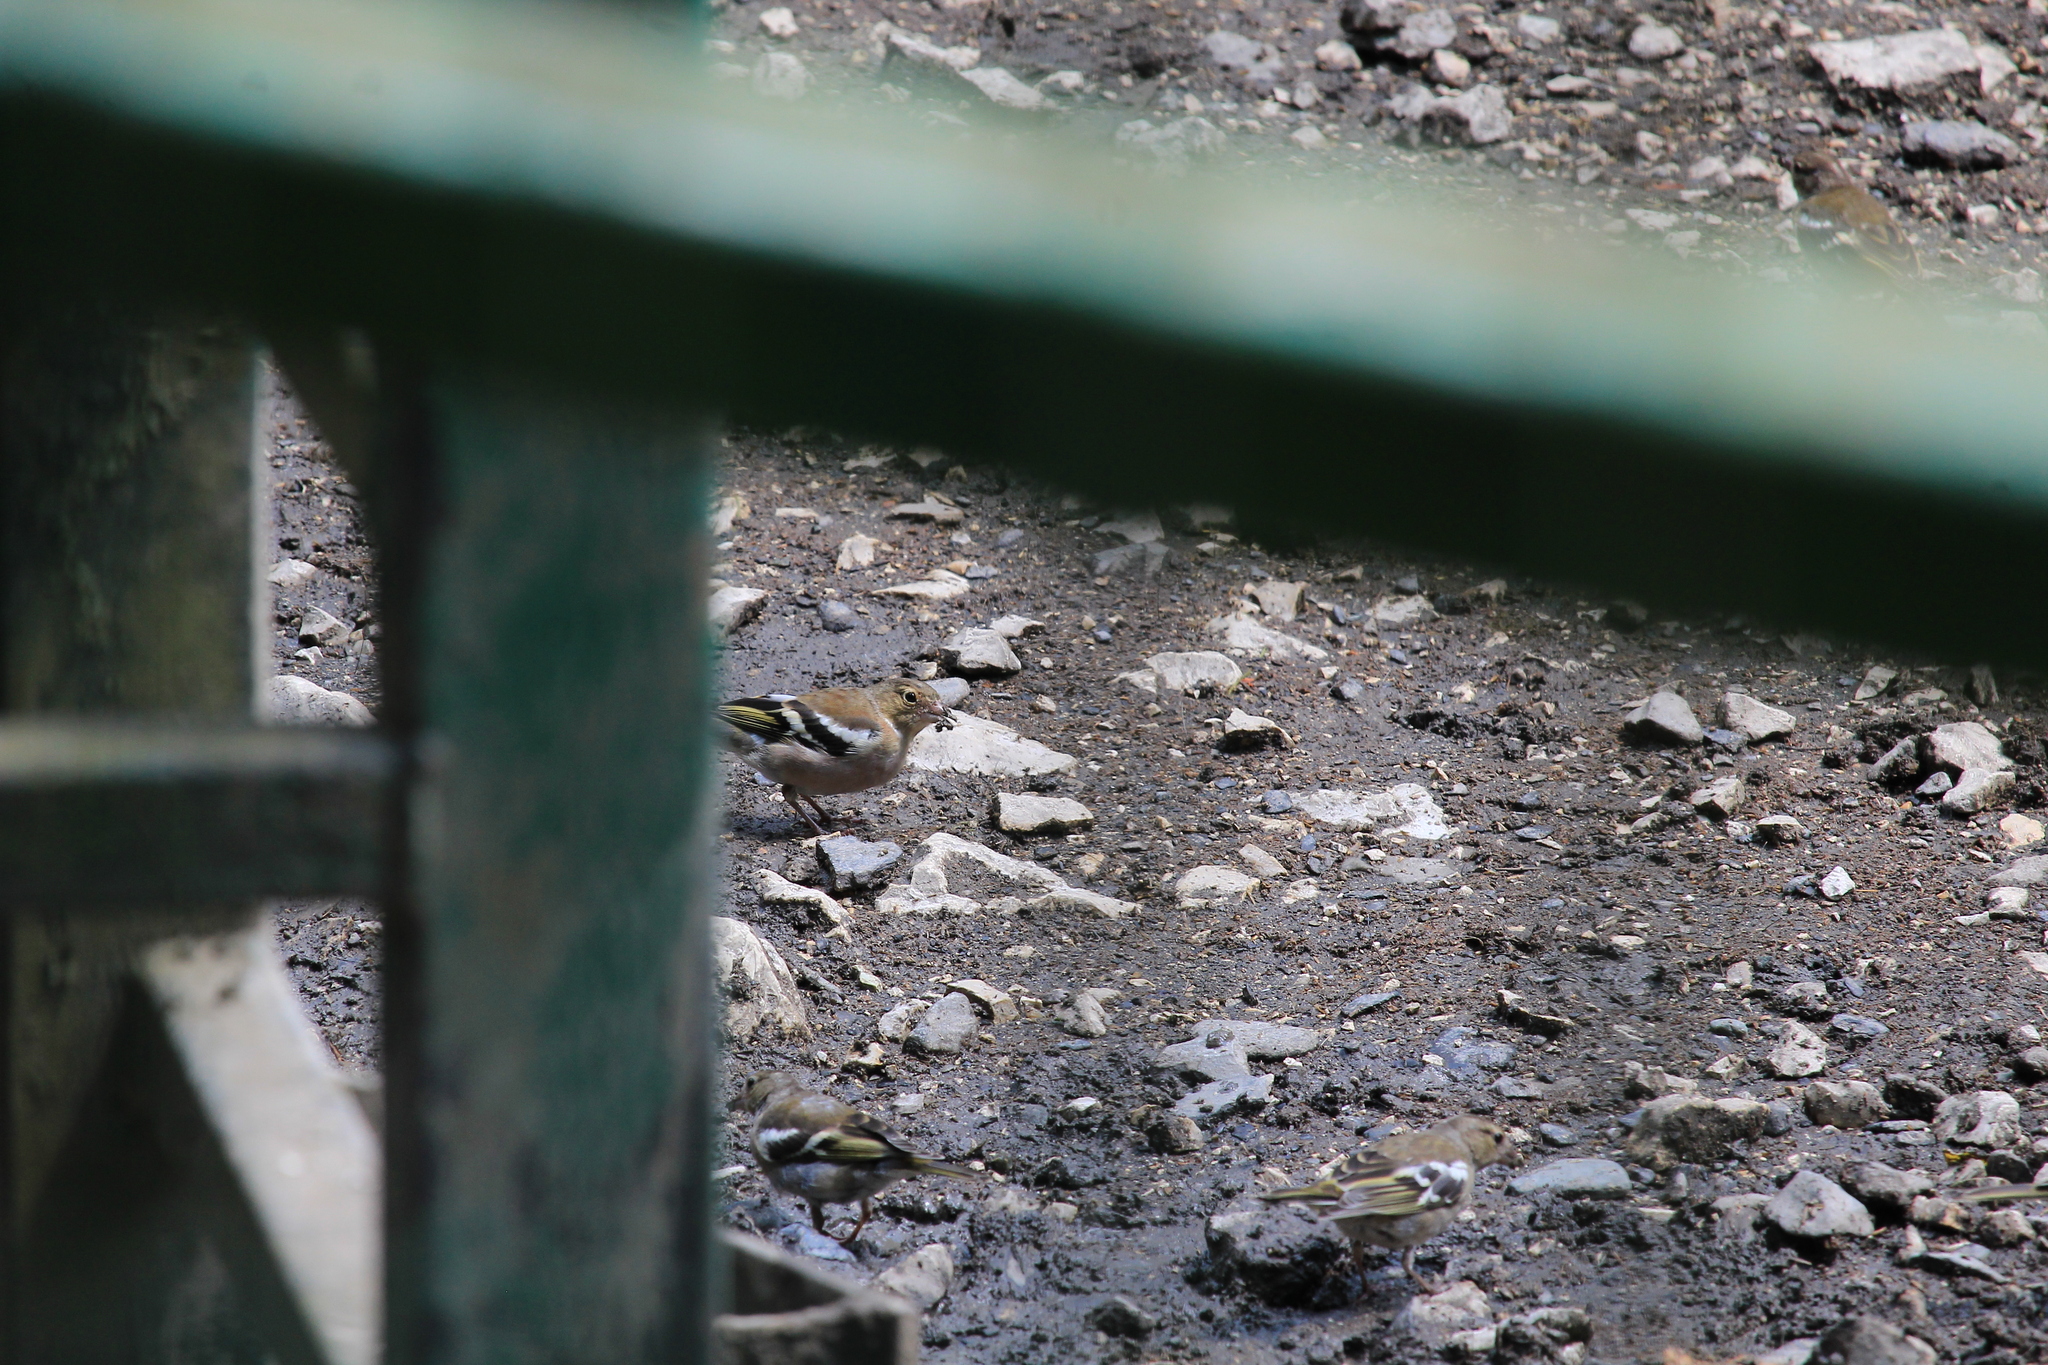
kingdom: Animalia
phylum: Chordata
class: Aves
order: Passeriformes
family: Fringillidae
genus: Fringilla
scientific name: Fringilla coelebs
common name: Common chaffinch
